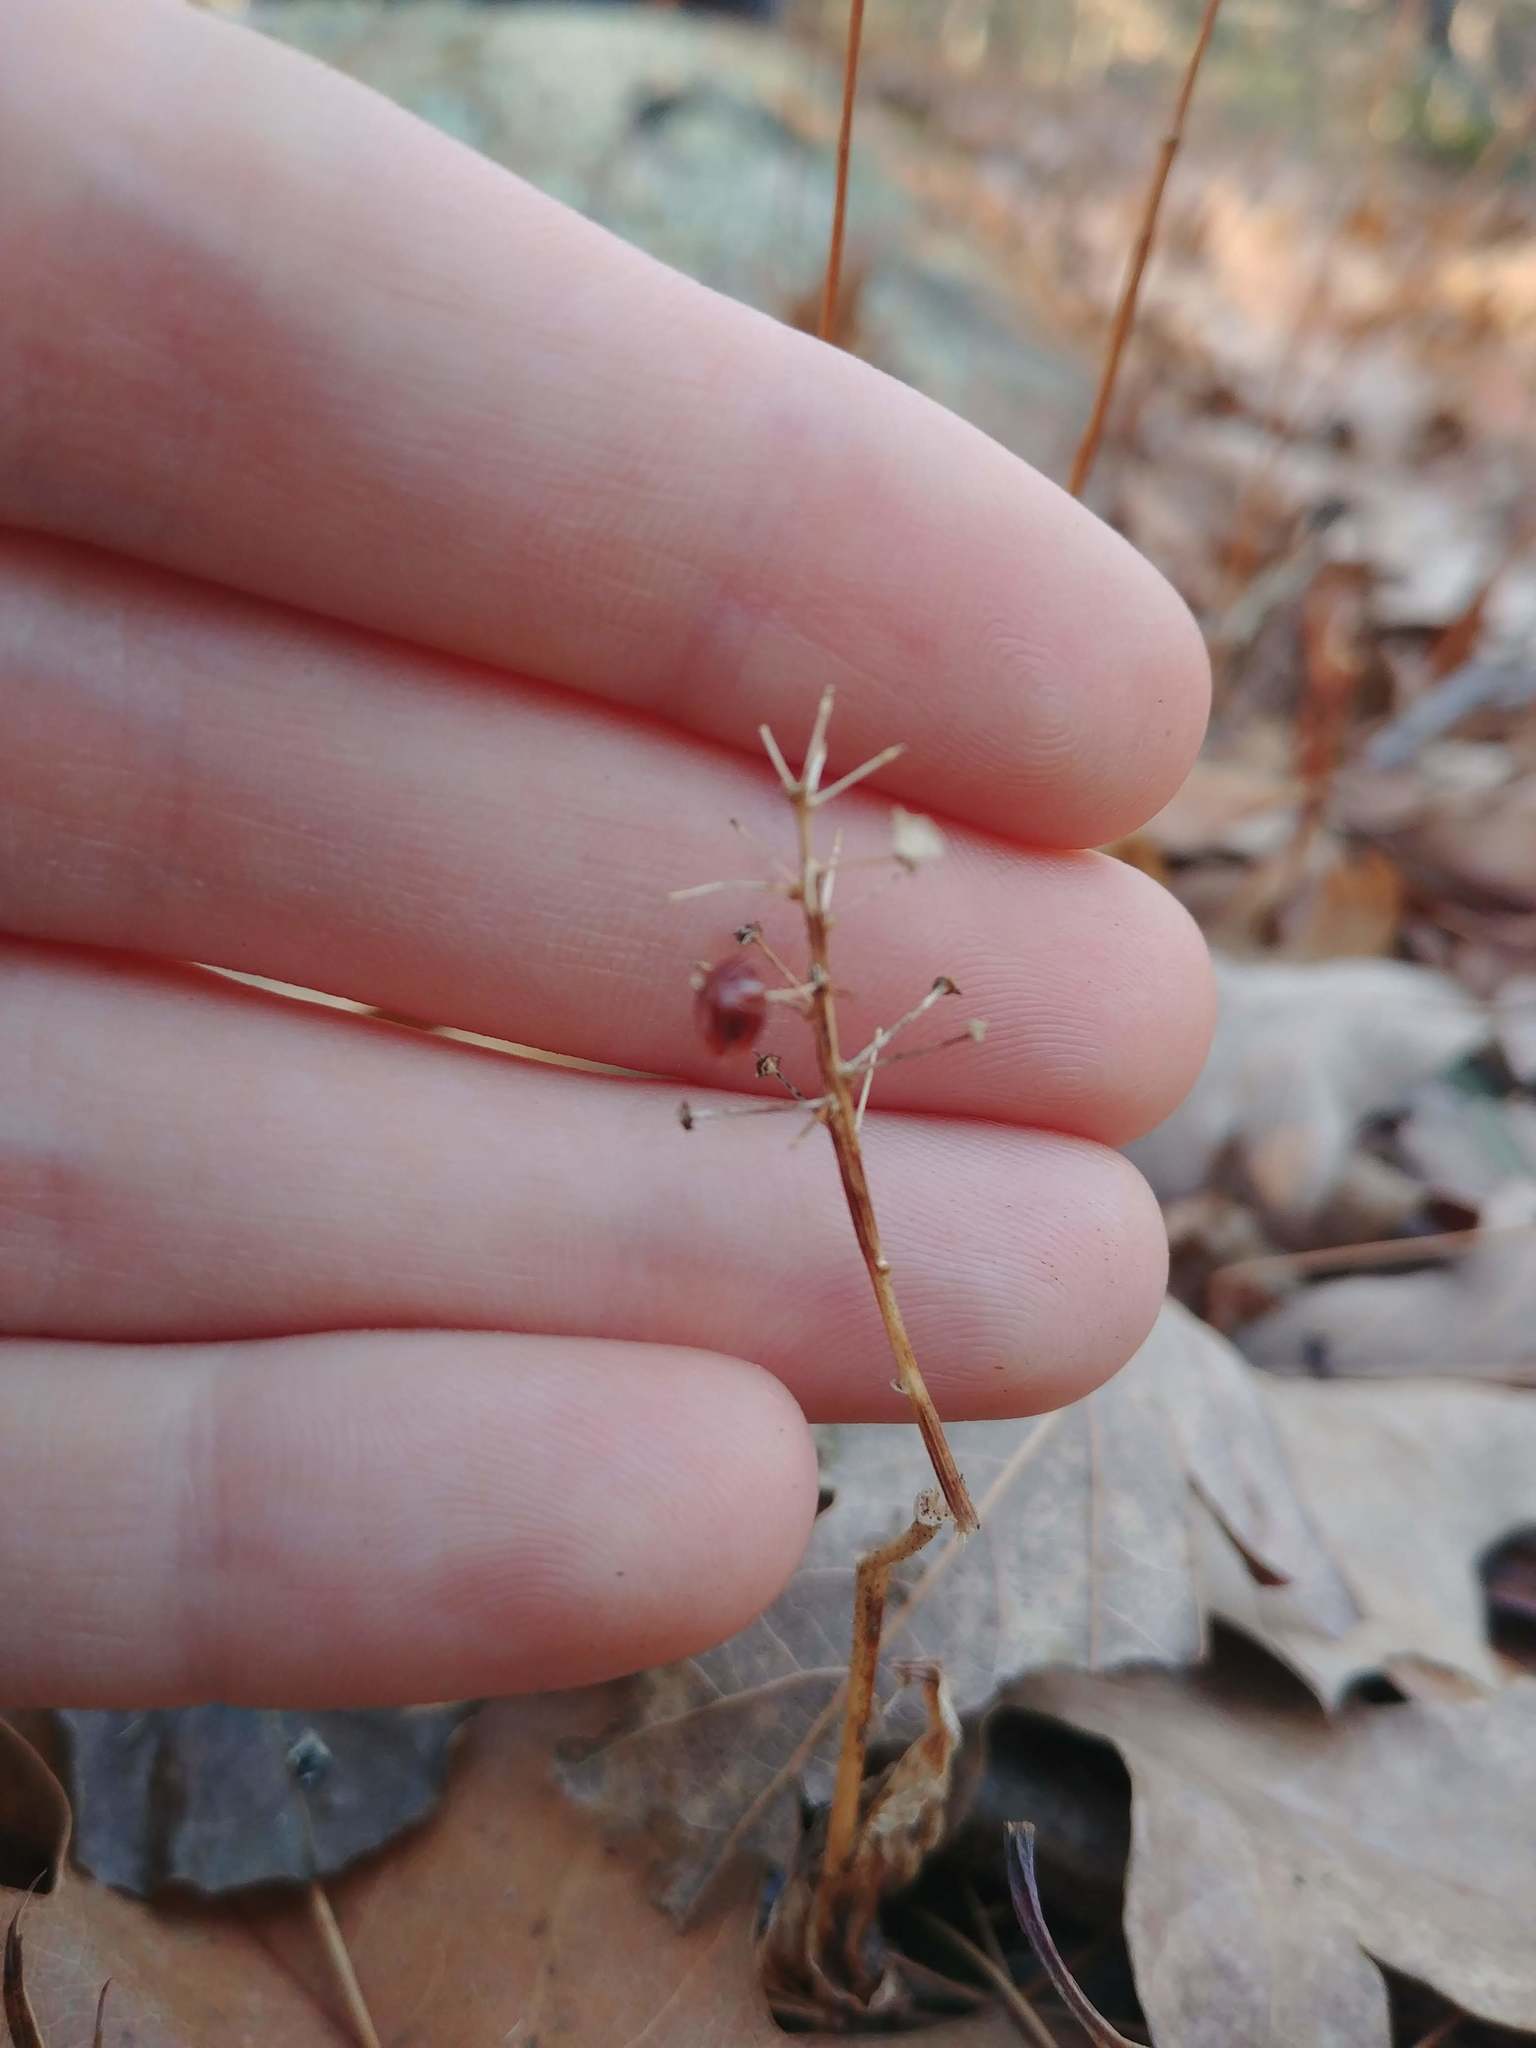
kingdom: Plantae
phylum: Tracheophyta
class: Liliopsida
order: Asparagales
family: Asparagaceae
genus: Maianthemum
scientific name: Maianthemum canadense
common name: False lily-of-the-valley
